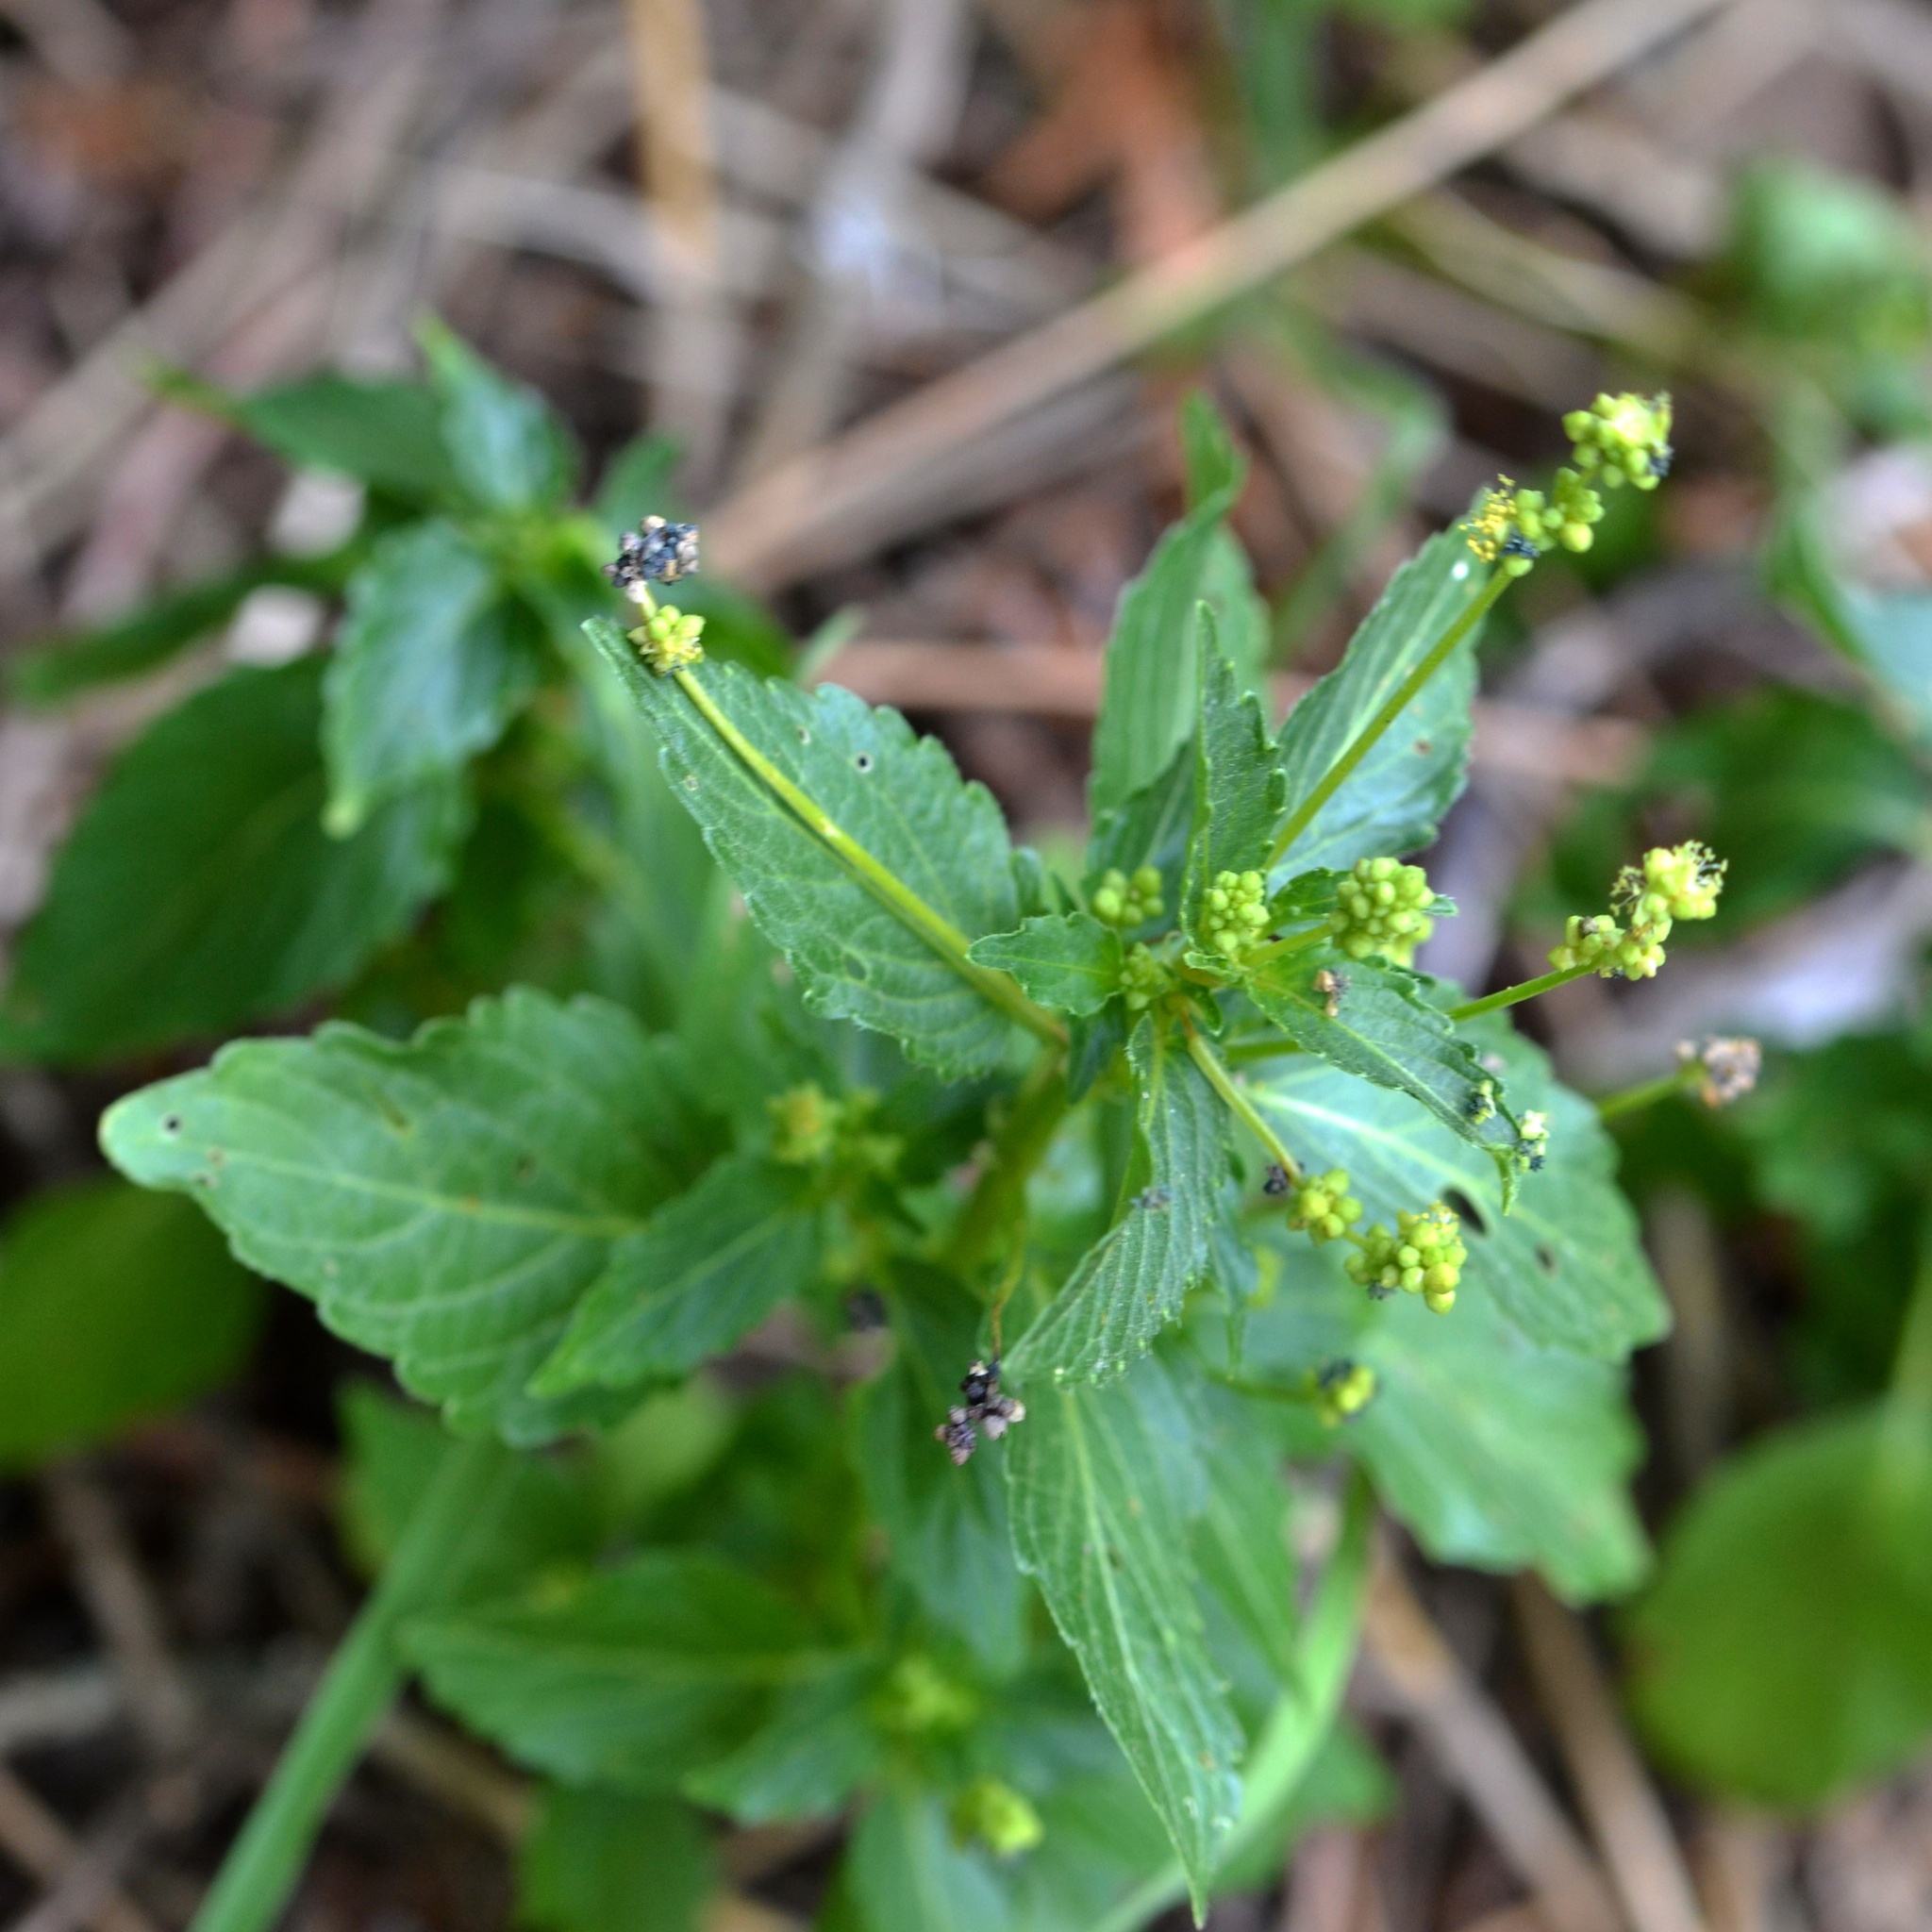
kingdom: Plantae
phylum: Tracheophyta
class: Magnoliopsida
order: Malpighiales
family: Euphorbiaceae
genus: Mercurialis
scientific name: Mercurialis annua
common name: Annual mercury
